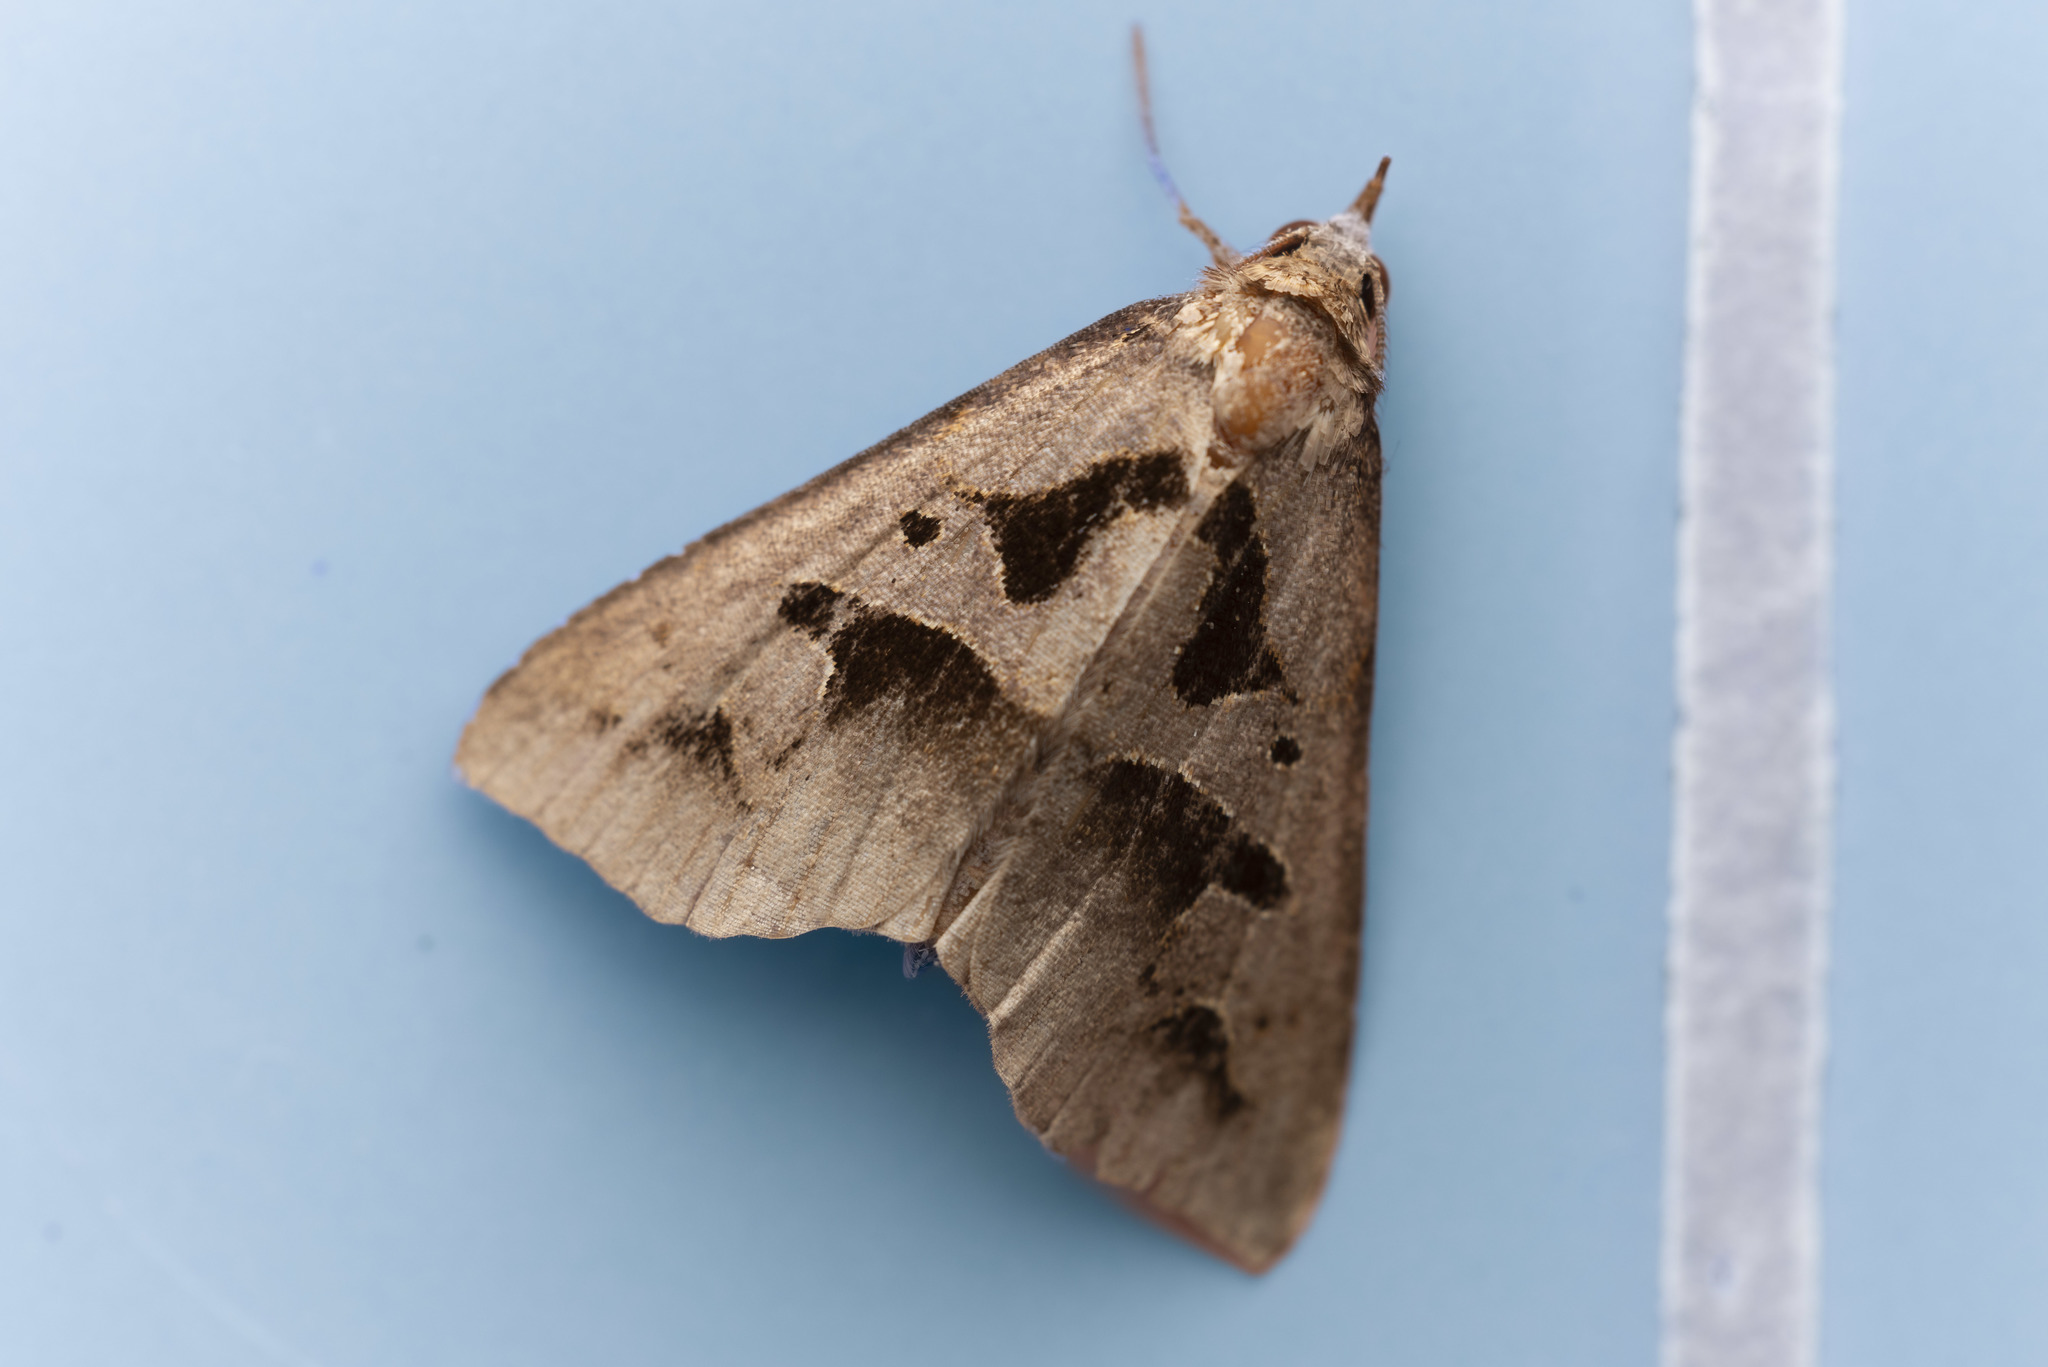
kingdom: Animalia
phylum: Arthropoda
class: Insecta
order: Lepidoptera
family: Erebidae
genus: Tephriopis
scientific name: Tephriopis divulsa
